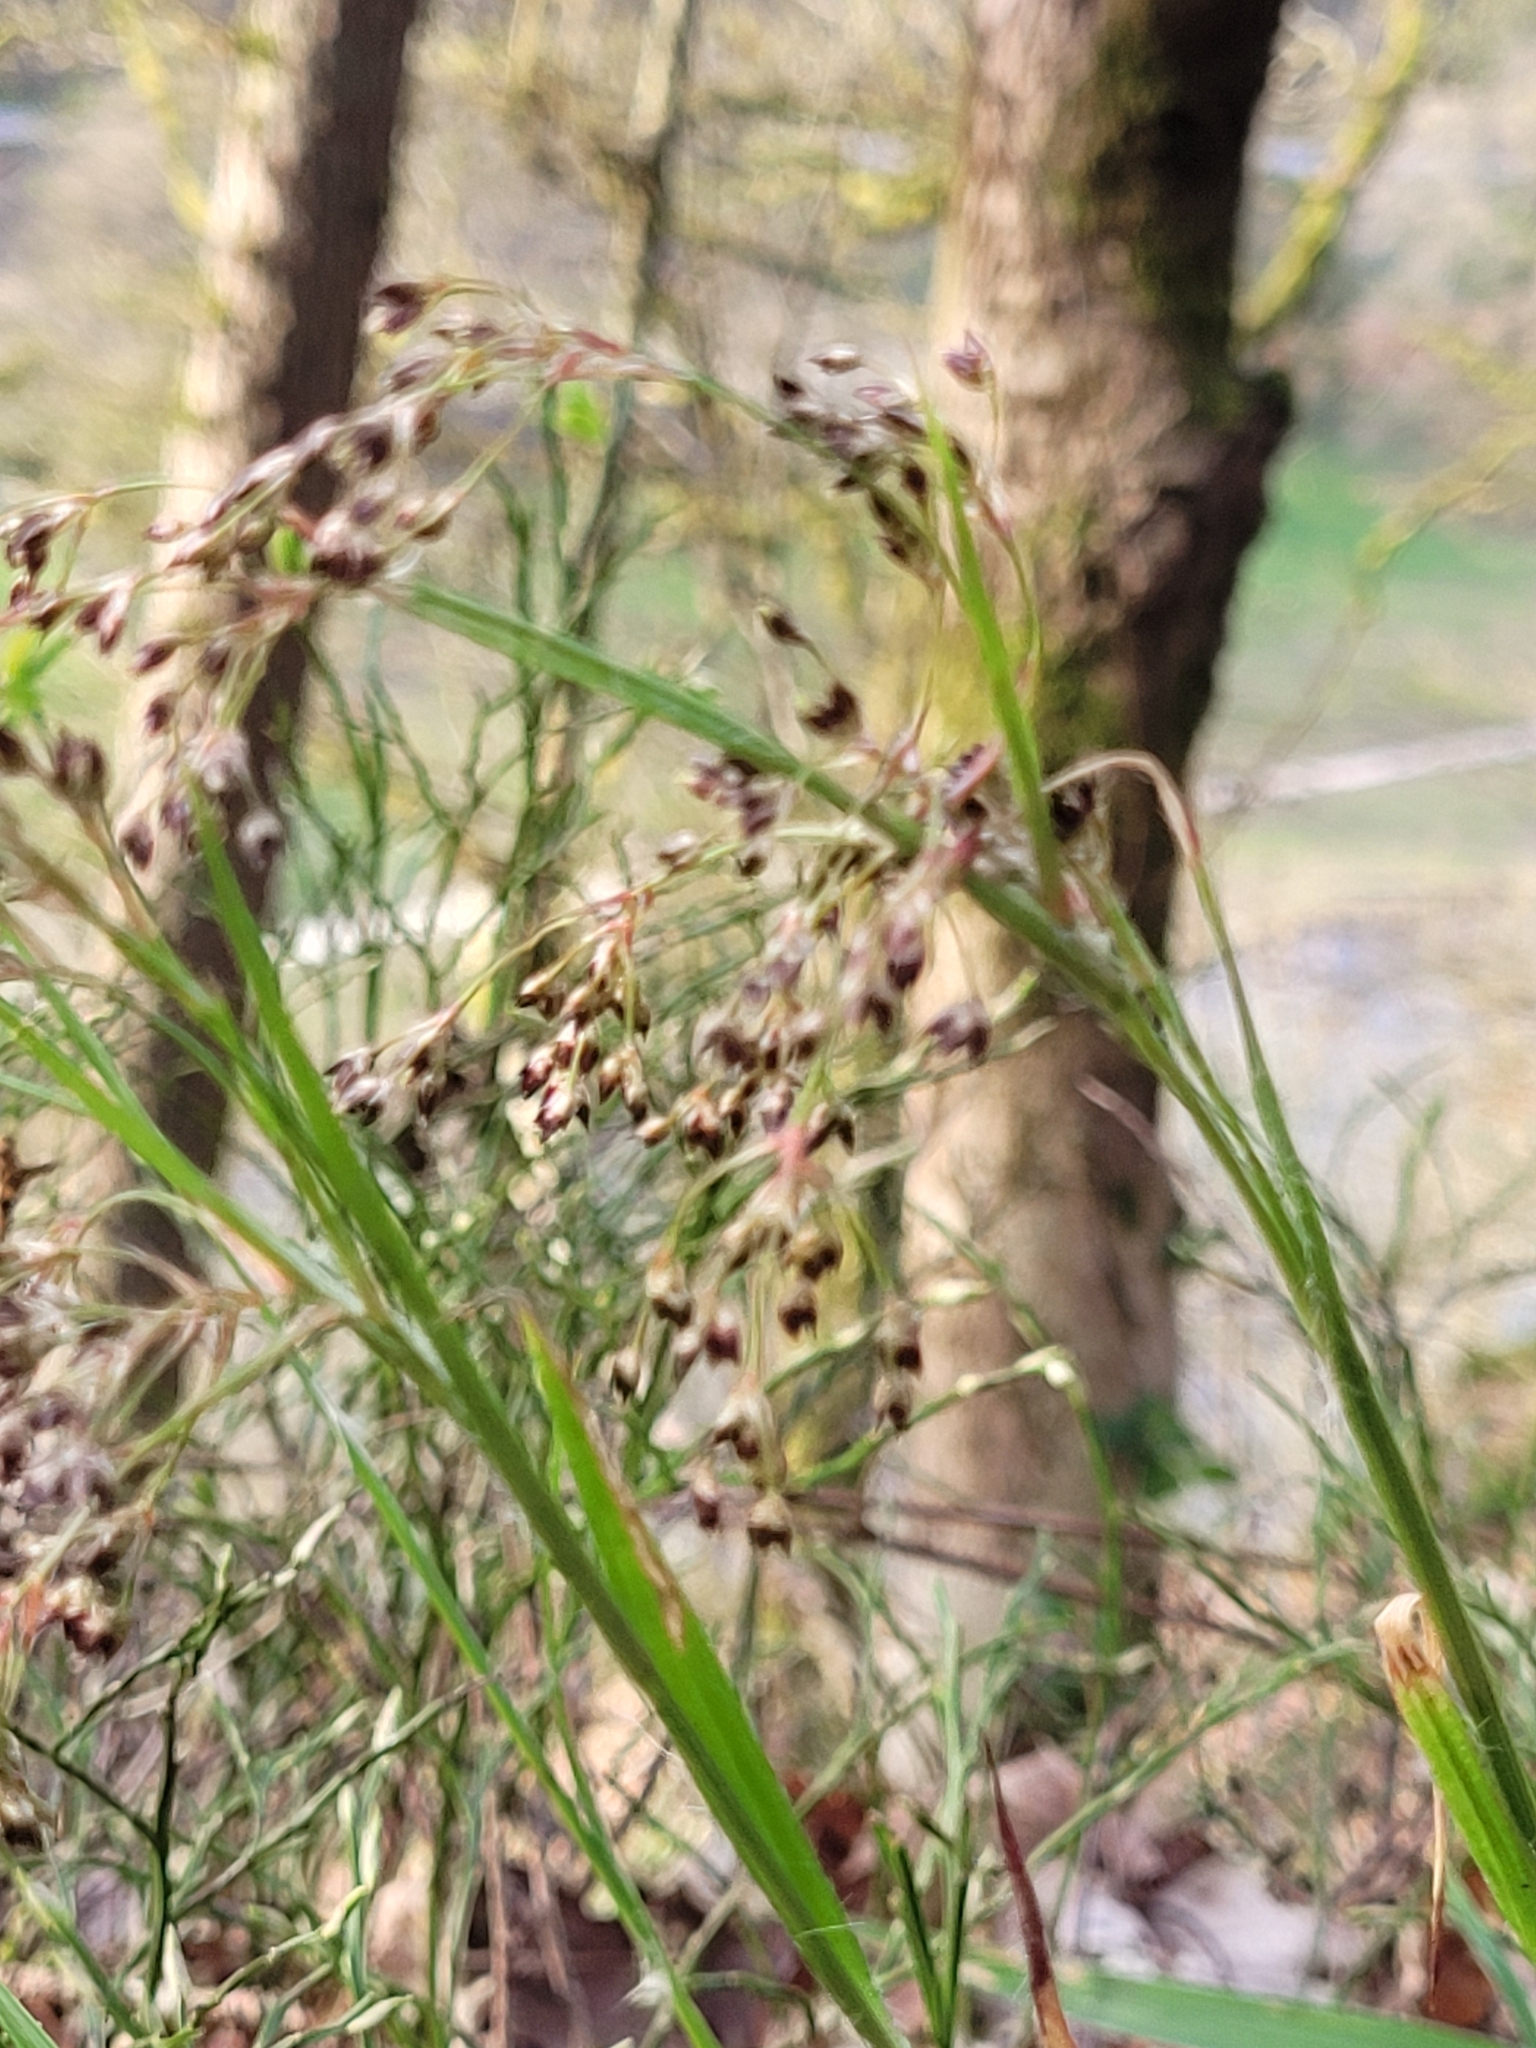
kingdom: Plantae
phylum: Tracheophyta
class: Liliopsida
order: Poales
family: Juncaceae
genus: Luzula
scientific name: Luzula sylvatica
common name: Great wood-rush
